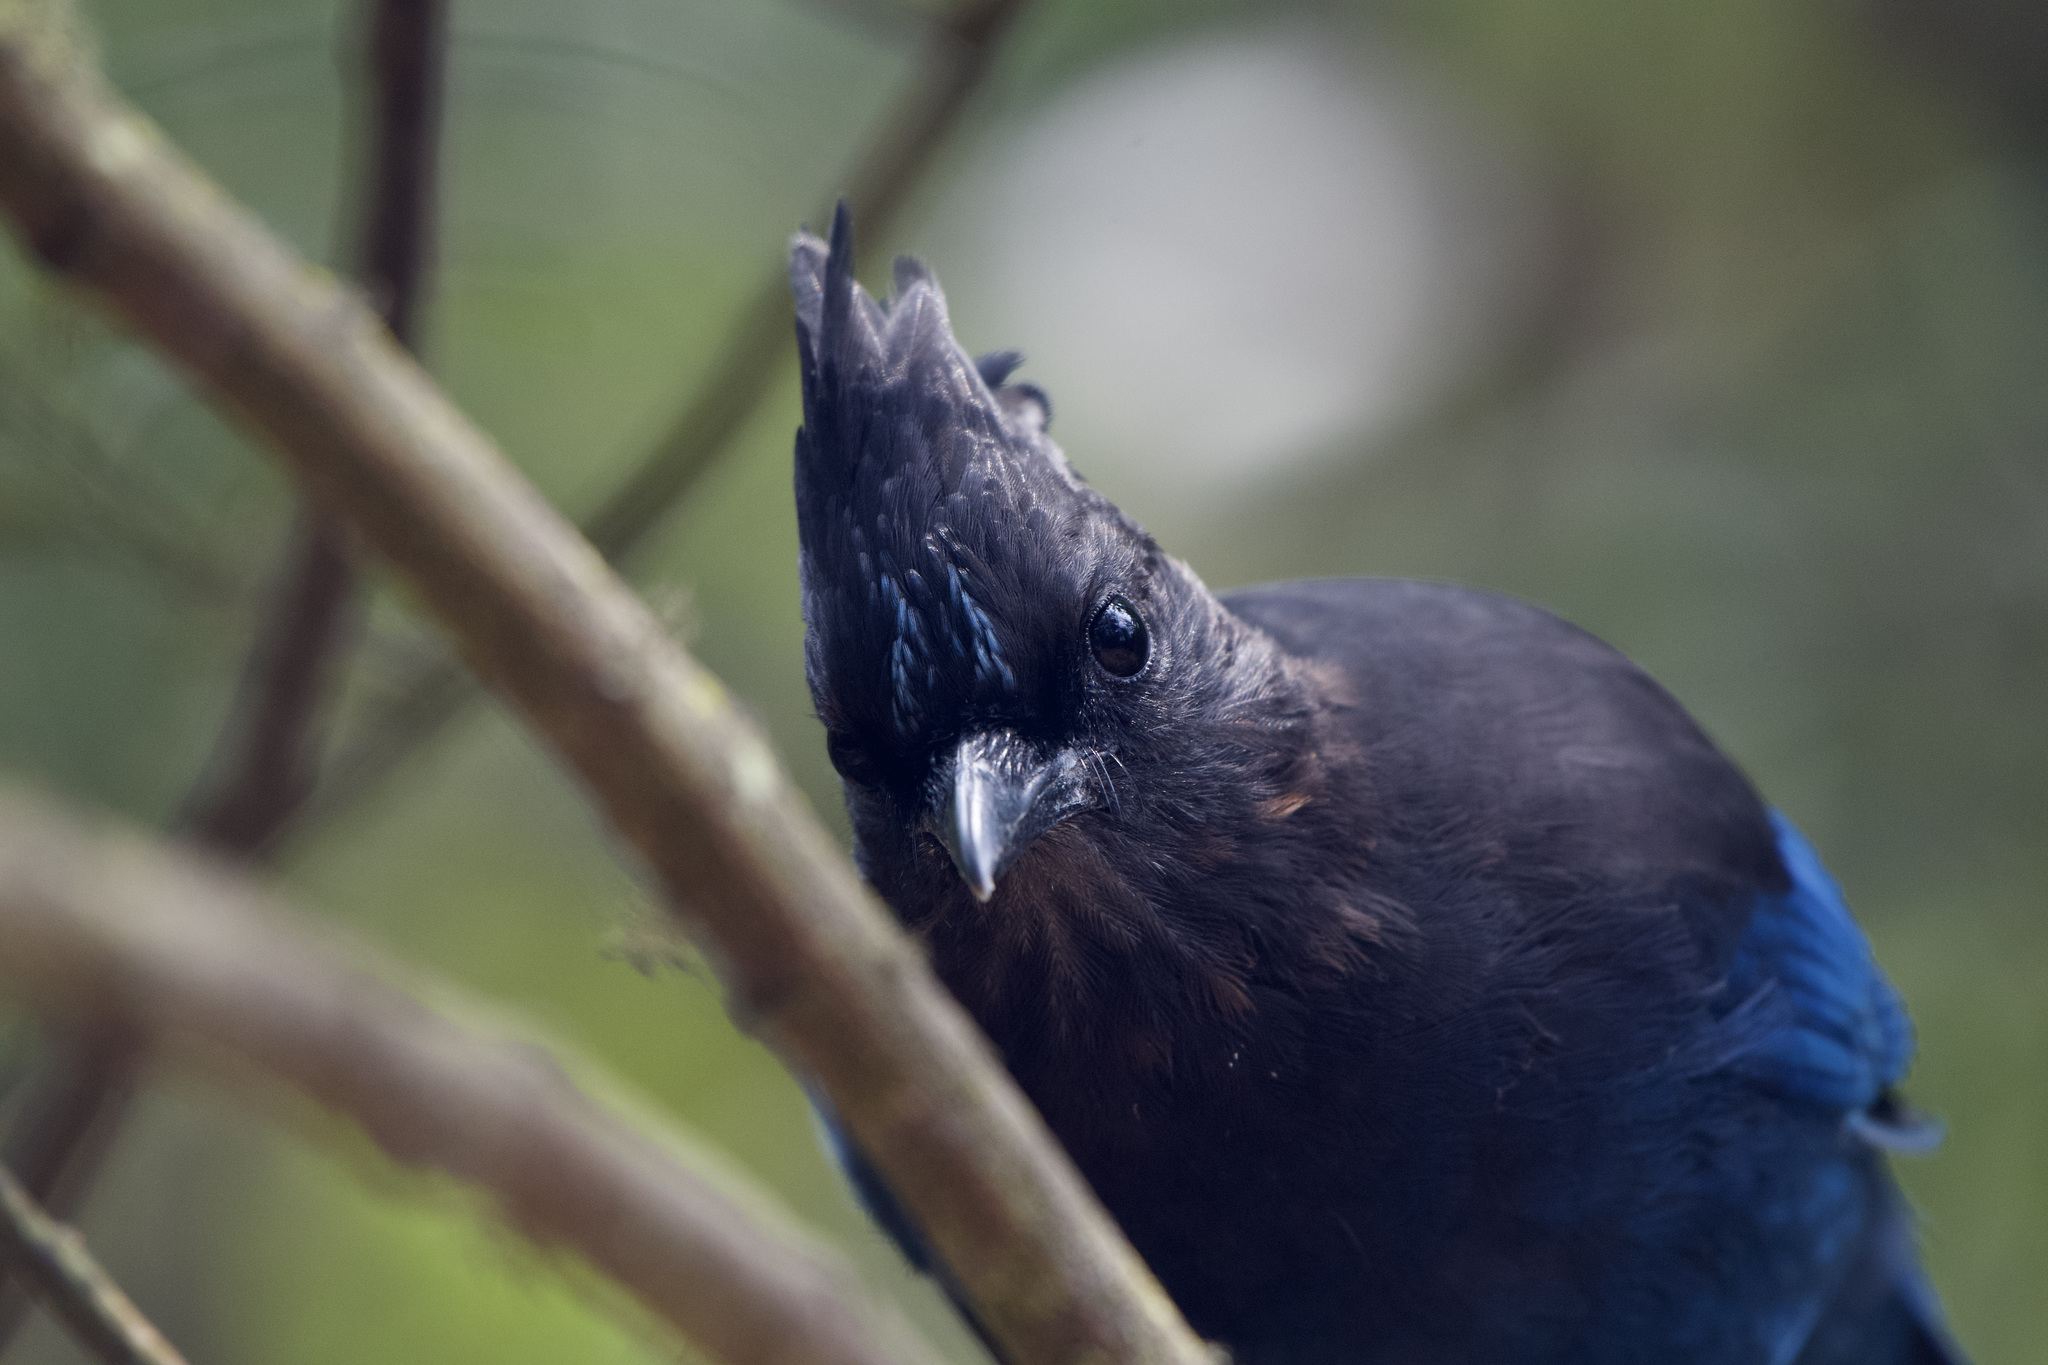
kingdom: Animalia
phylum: Chordata
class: Aves
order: Passeriformes
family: Corvidae
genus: Cyanocitta
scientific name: Cyanocitta stelleri
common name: Steller's jay
